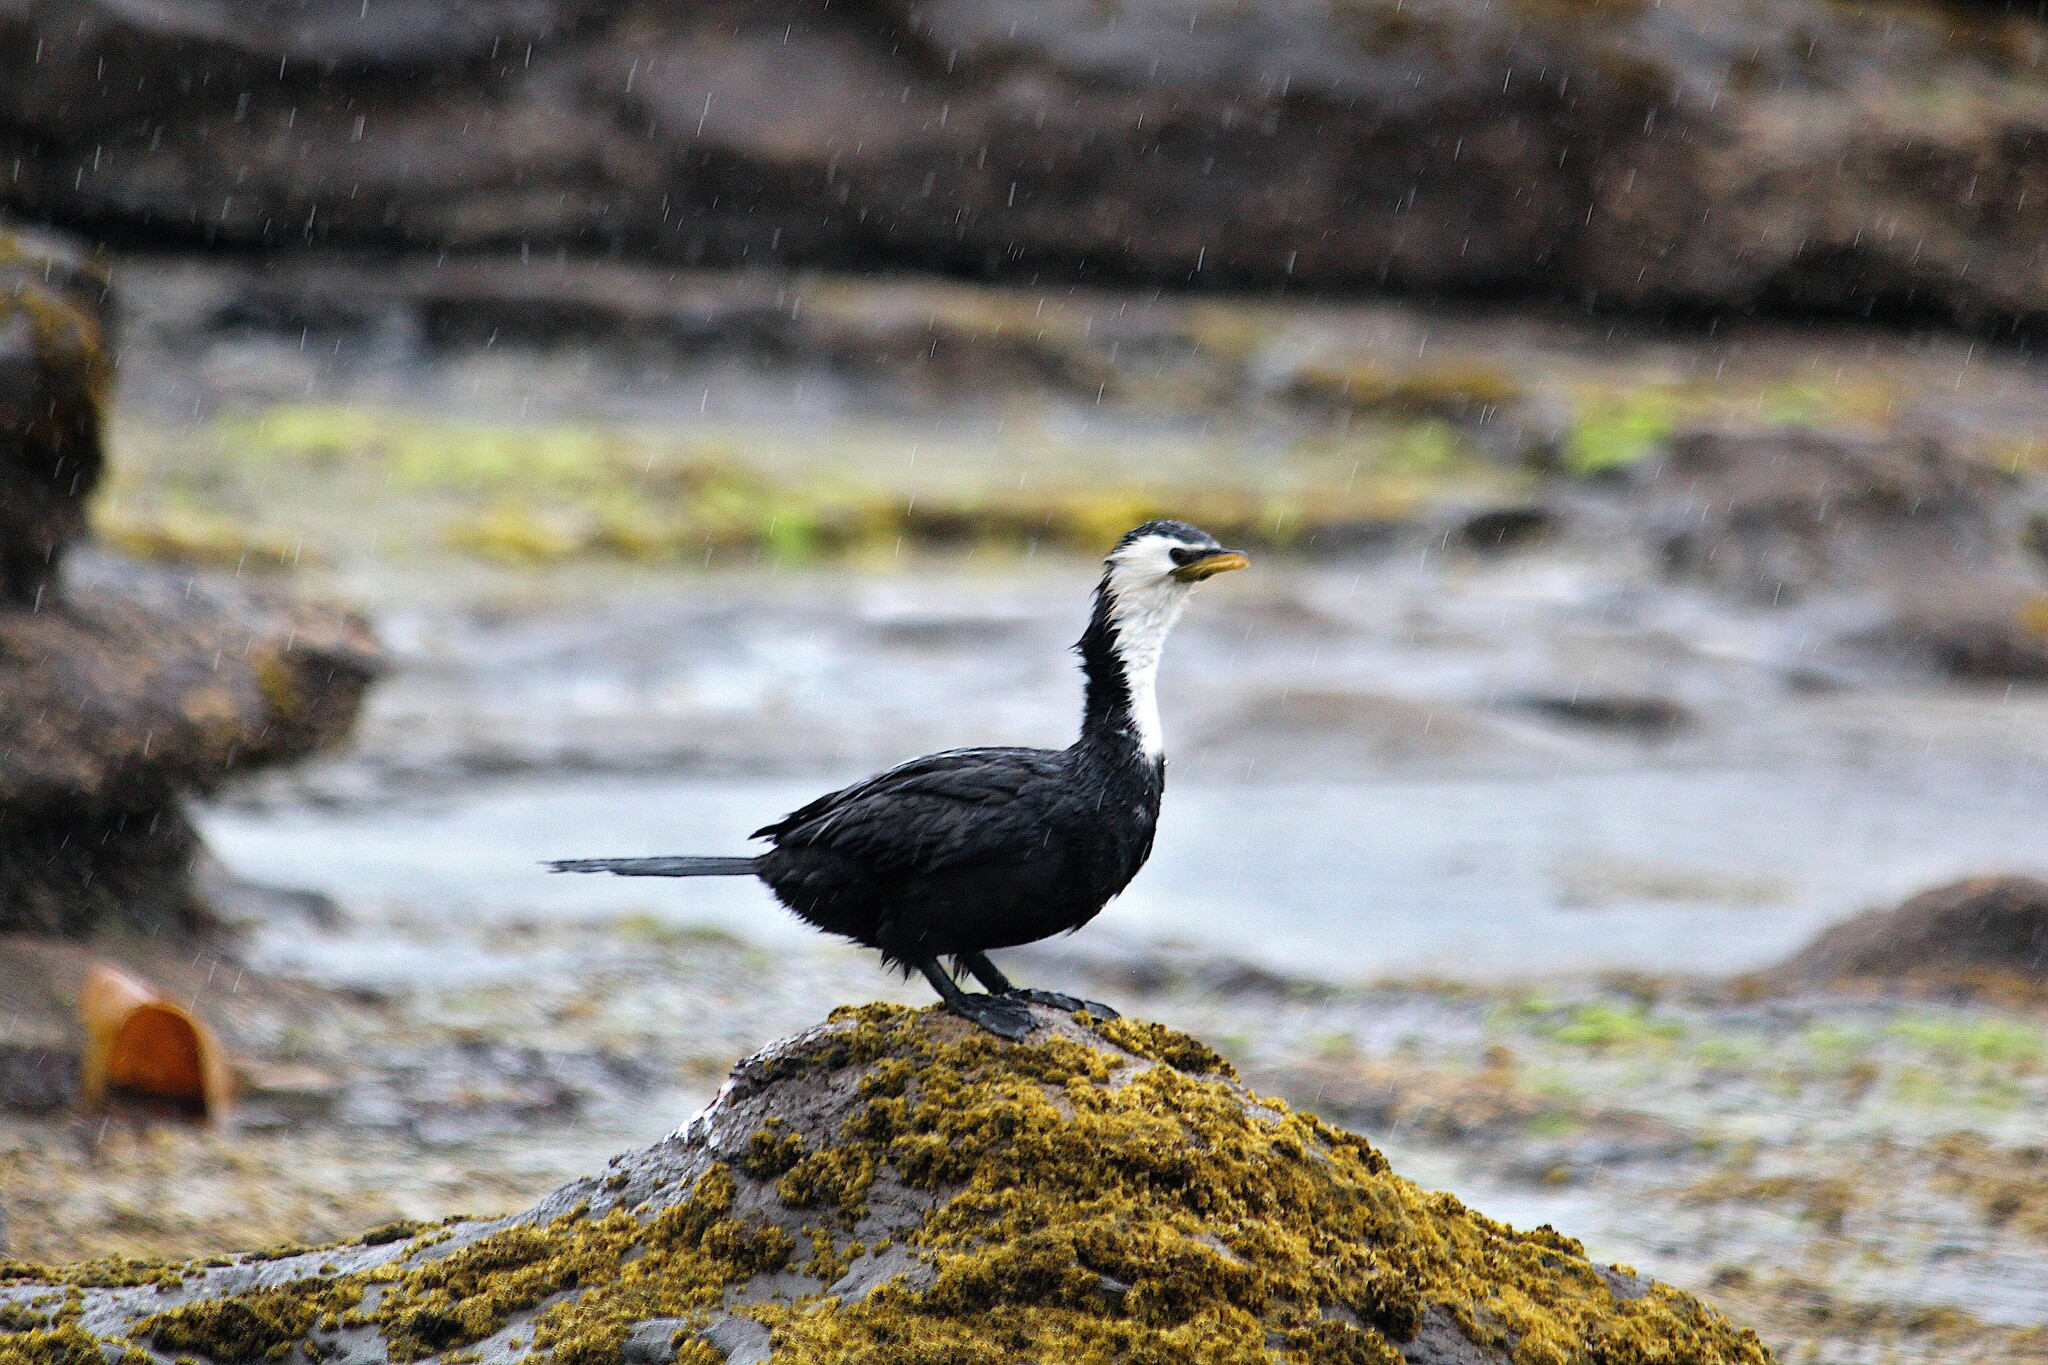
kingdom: Animalia
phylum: Chordata
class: Aves
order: Suliformes
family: Phalacrocoracidae
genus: Microcarbo
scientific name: Microcarbo melanoleucos
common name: Little pied cormorant
